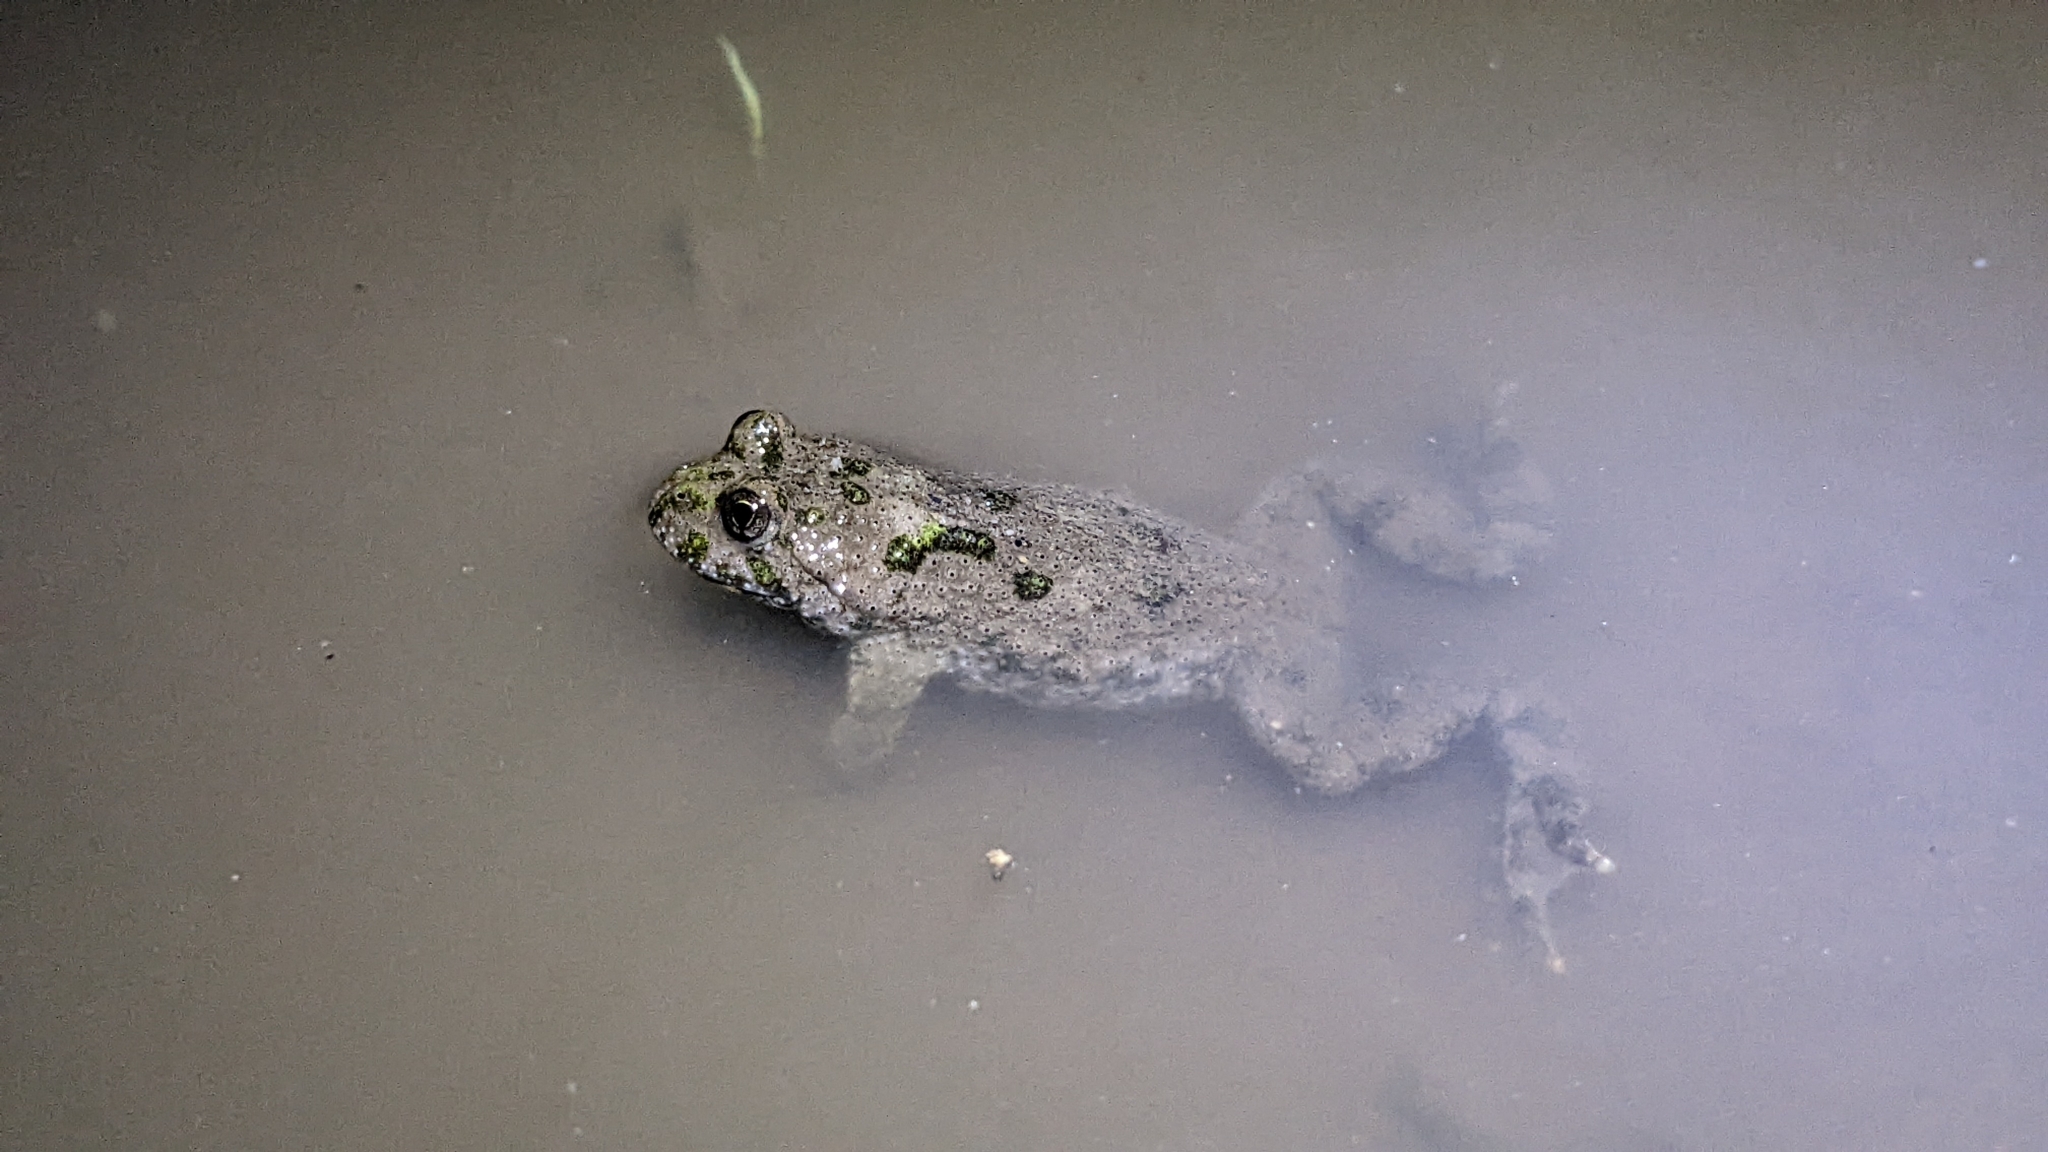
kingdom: Animalia
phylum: Chordata
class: Amphibia
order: Anura
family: Bombinatoridae
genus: Bombina
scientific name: Bombina variegata
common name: Yellow-bellied toad
